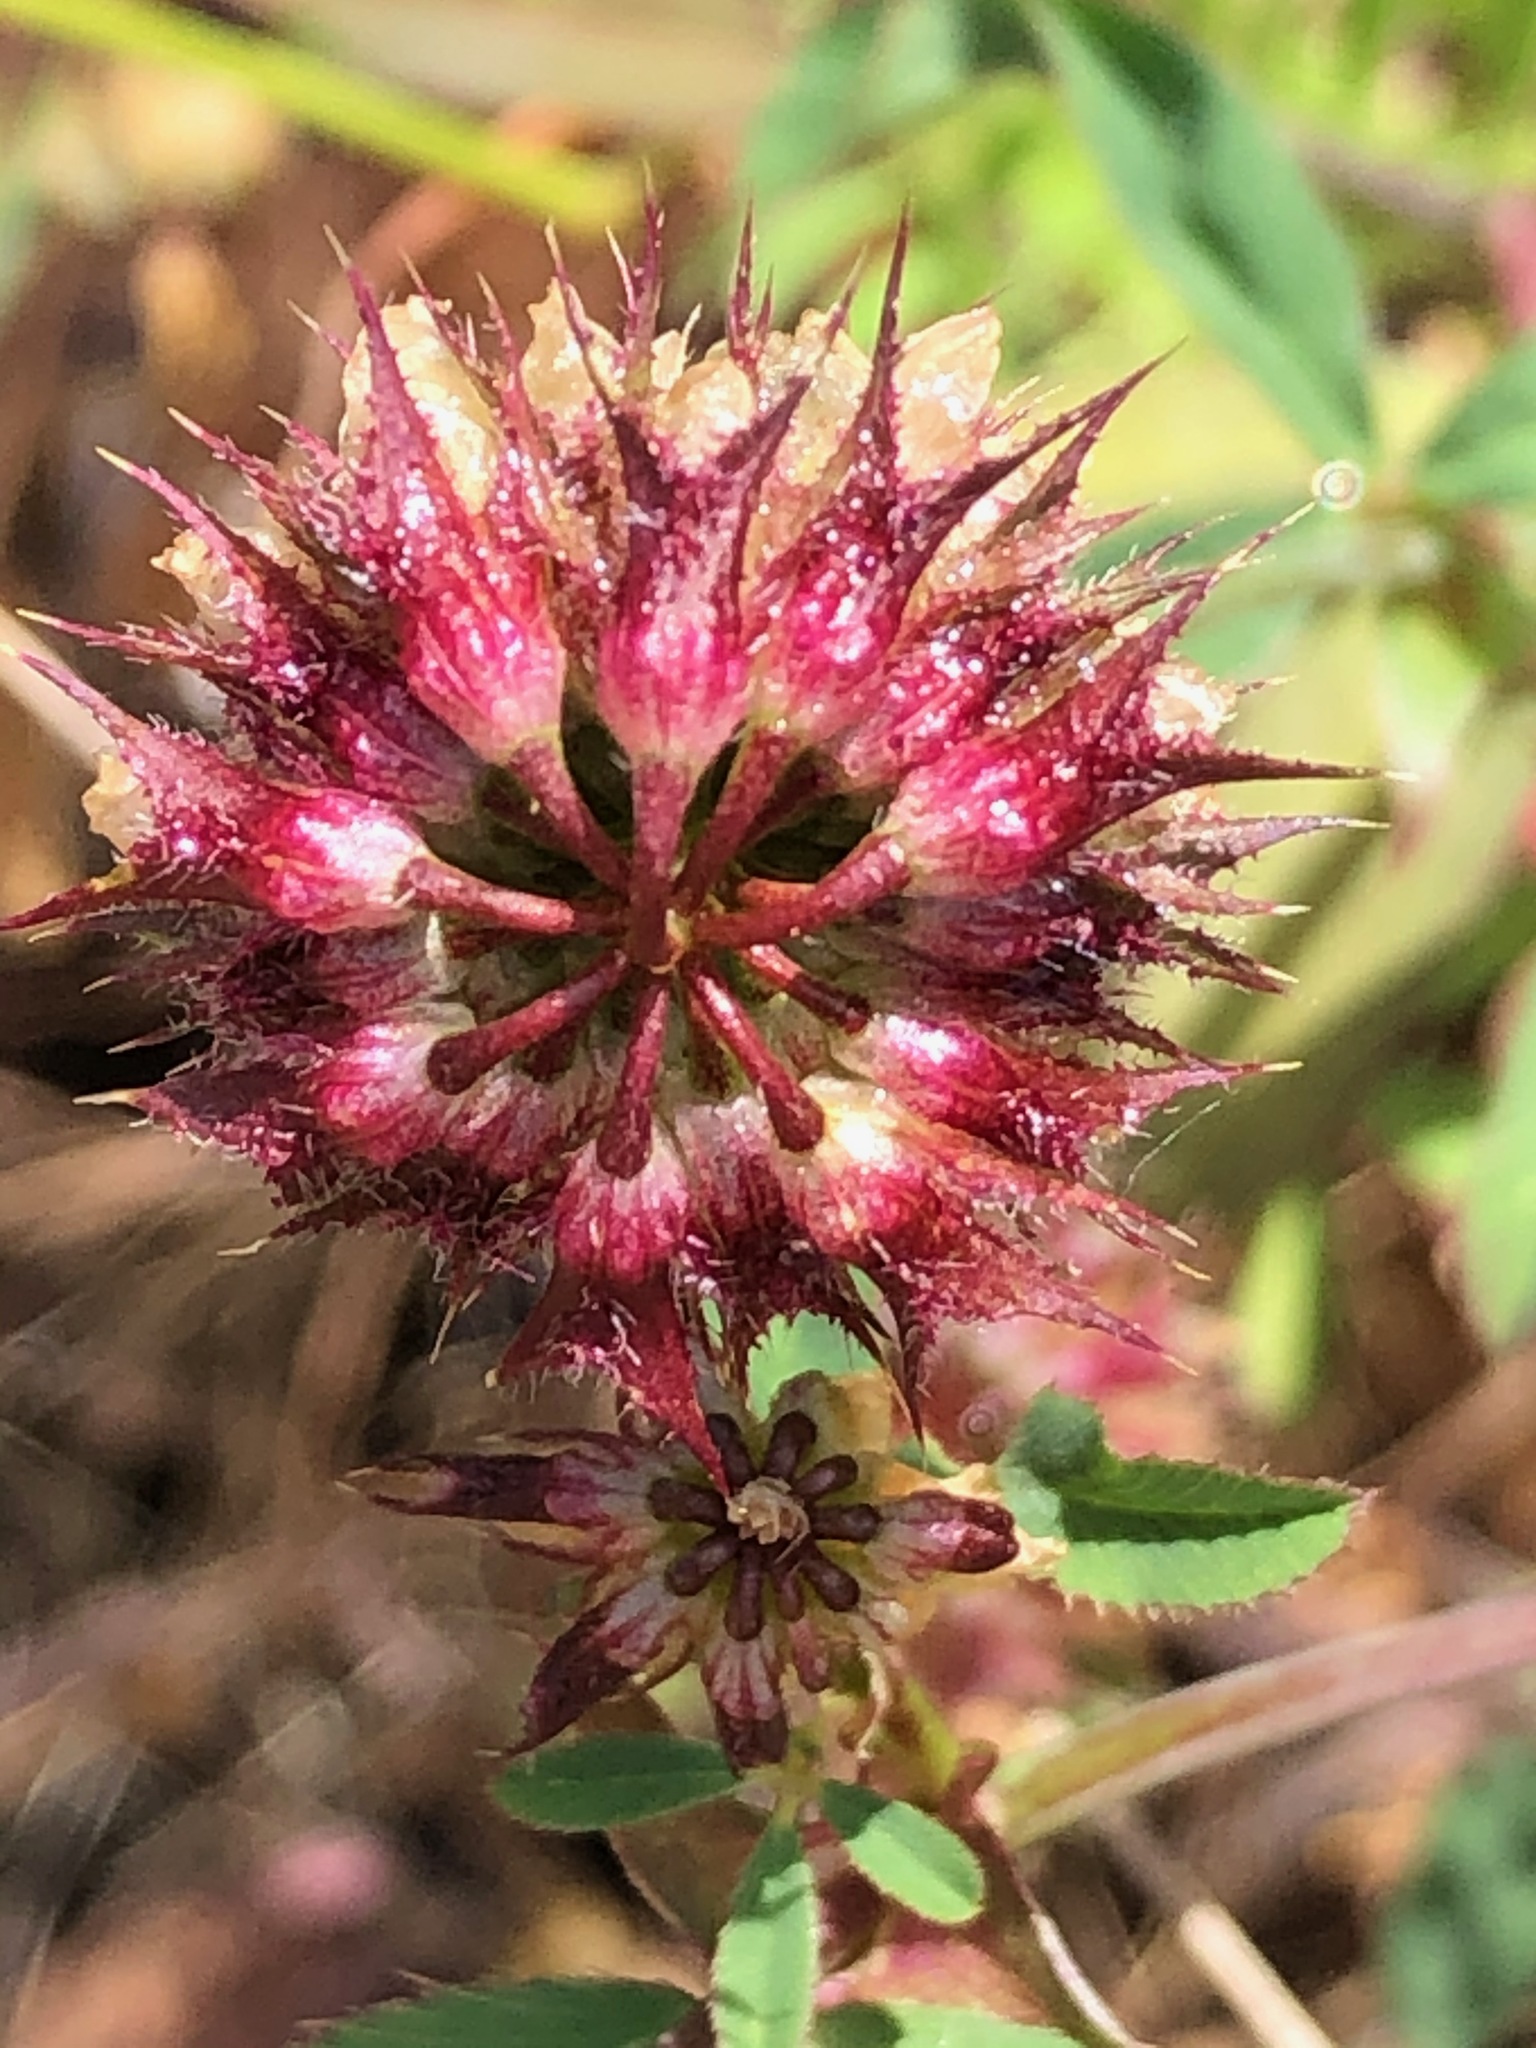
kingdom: Plantae
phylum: Tracheophyta
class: Magnoliopsida
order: Fabales
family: Fabaceae
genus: Trifolium
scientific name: Trifolium ciliolatum
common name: Foothill clover
